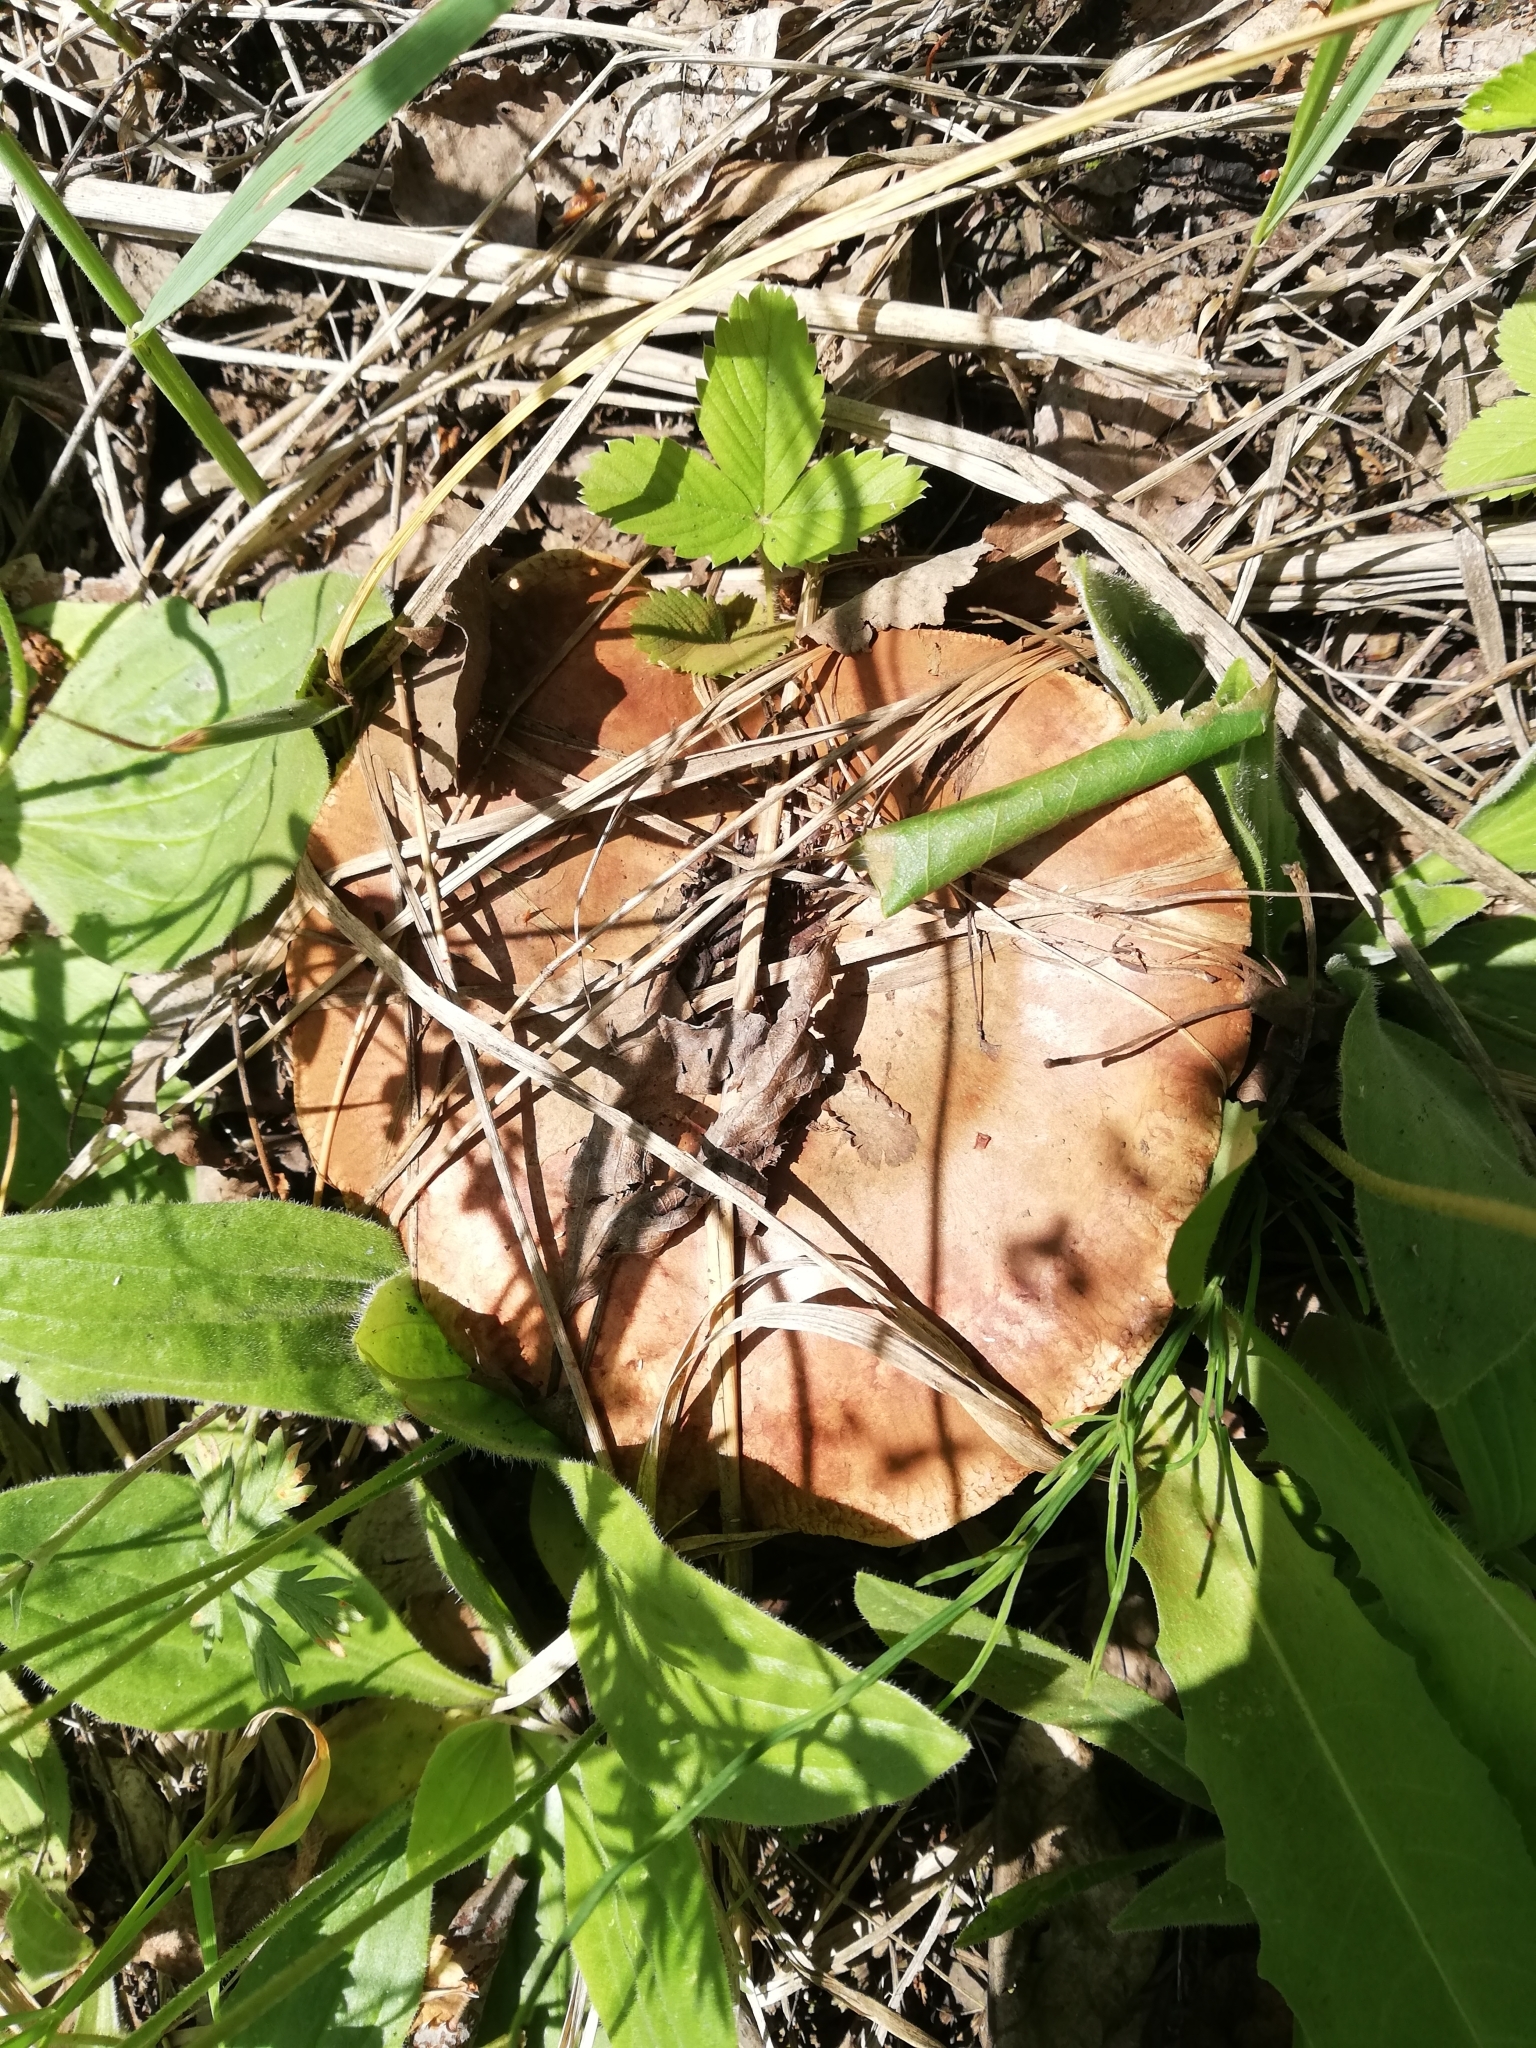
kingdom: Fungi
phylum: Basidiomycota
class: Agaricomycetes
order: Boletales
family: Paxillaceae
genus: Paxillus
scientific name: Paxillus involutus
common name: Brown roll rim
